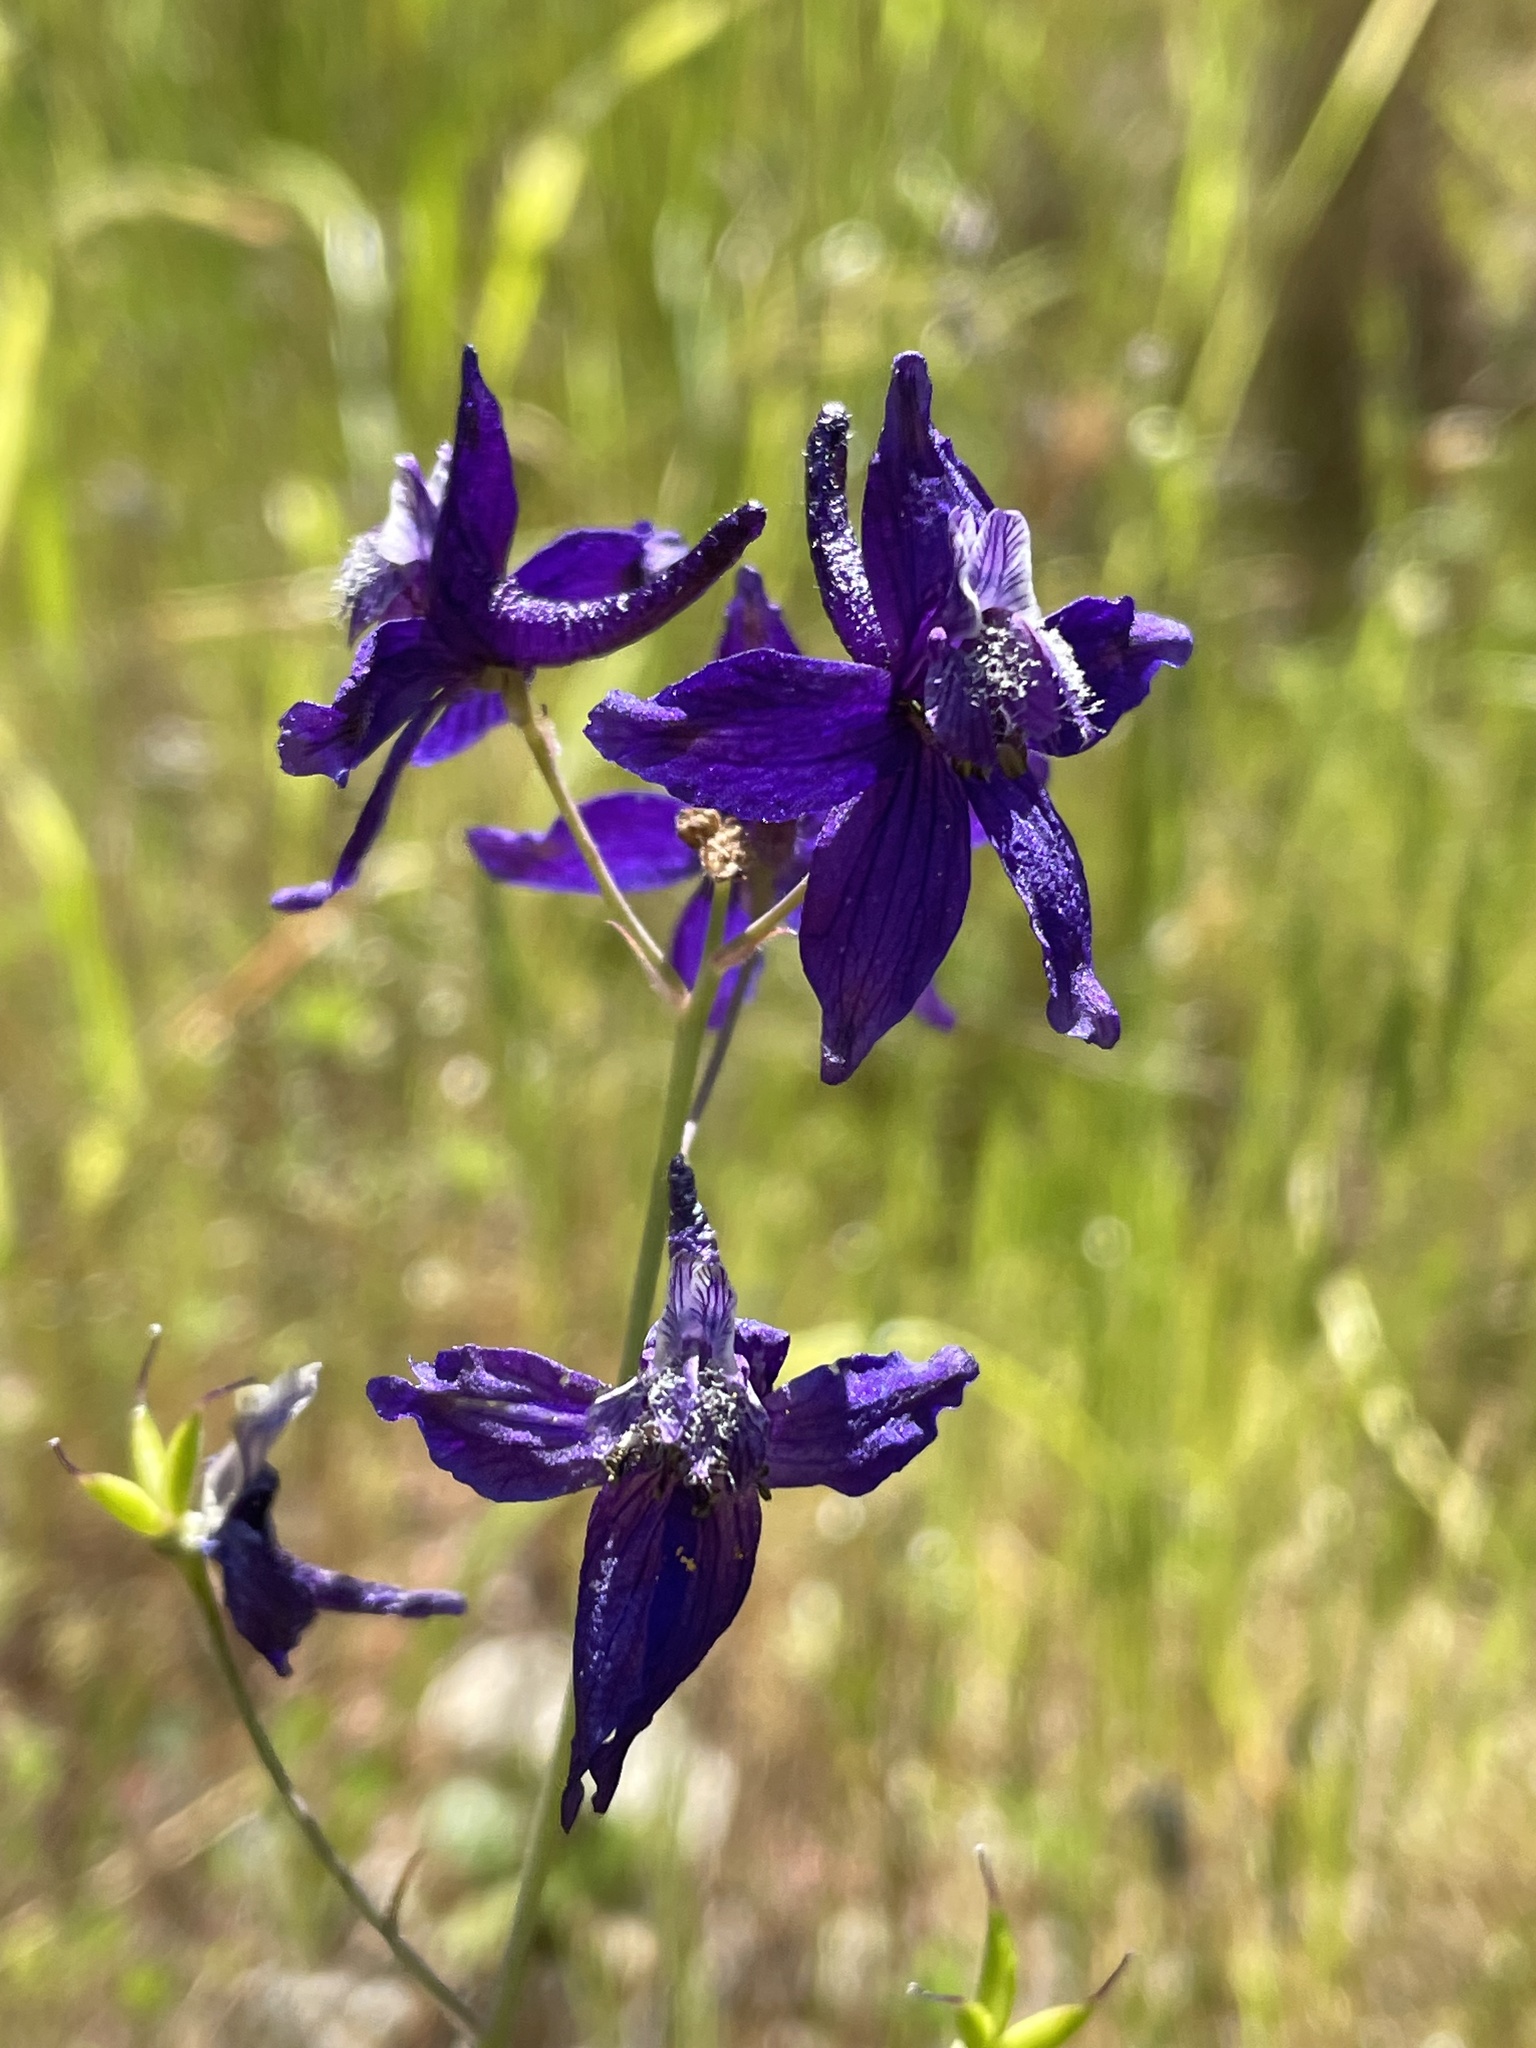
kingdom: Plantae
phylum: Tracheophyta
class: Magnoliopsida
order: Ranunculales
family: Ranunculaceae
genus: Delphinium
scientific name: Delphinium patens
